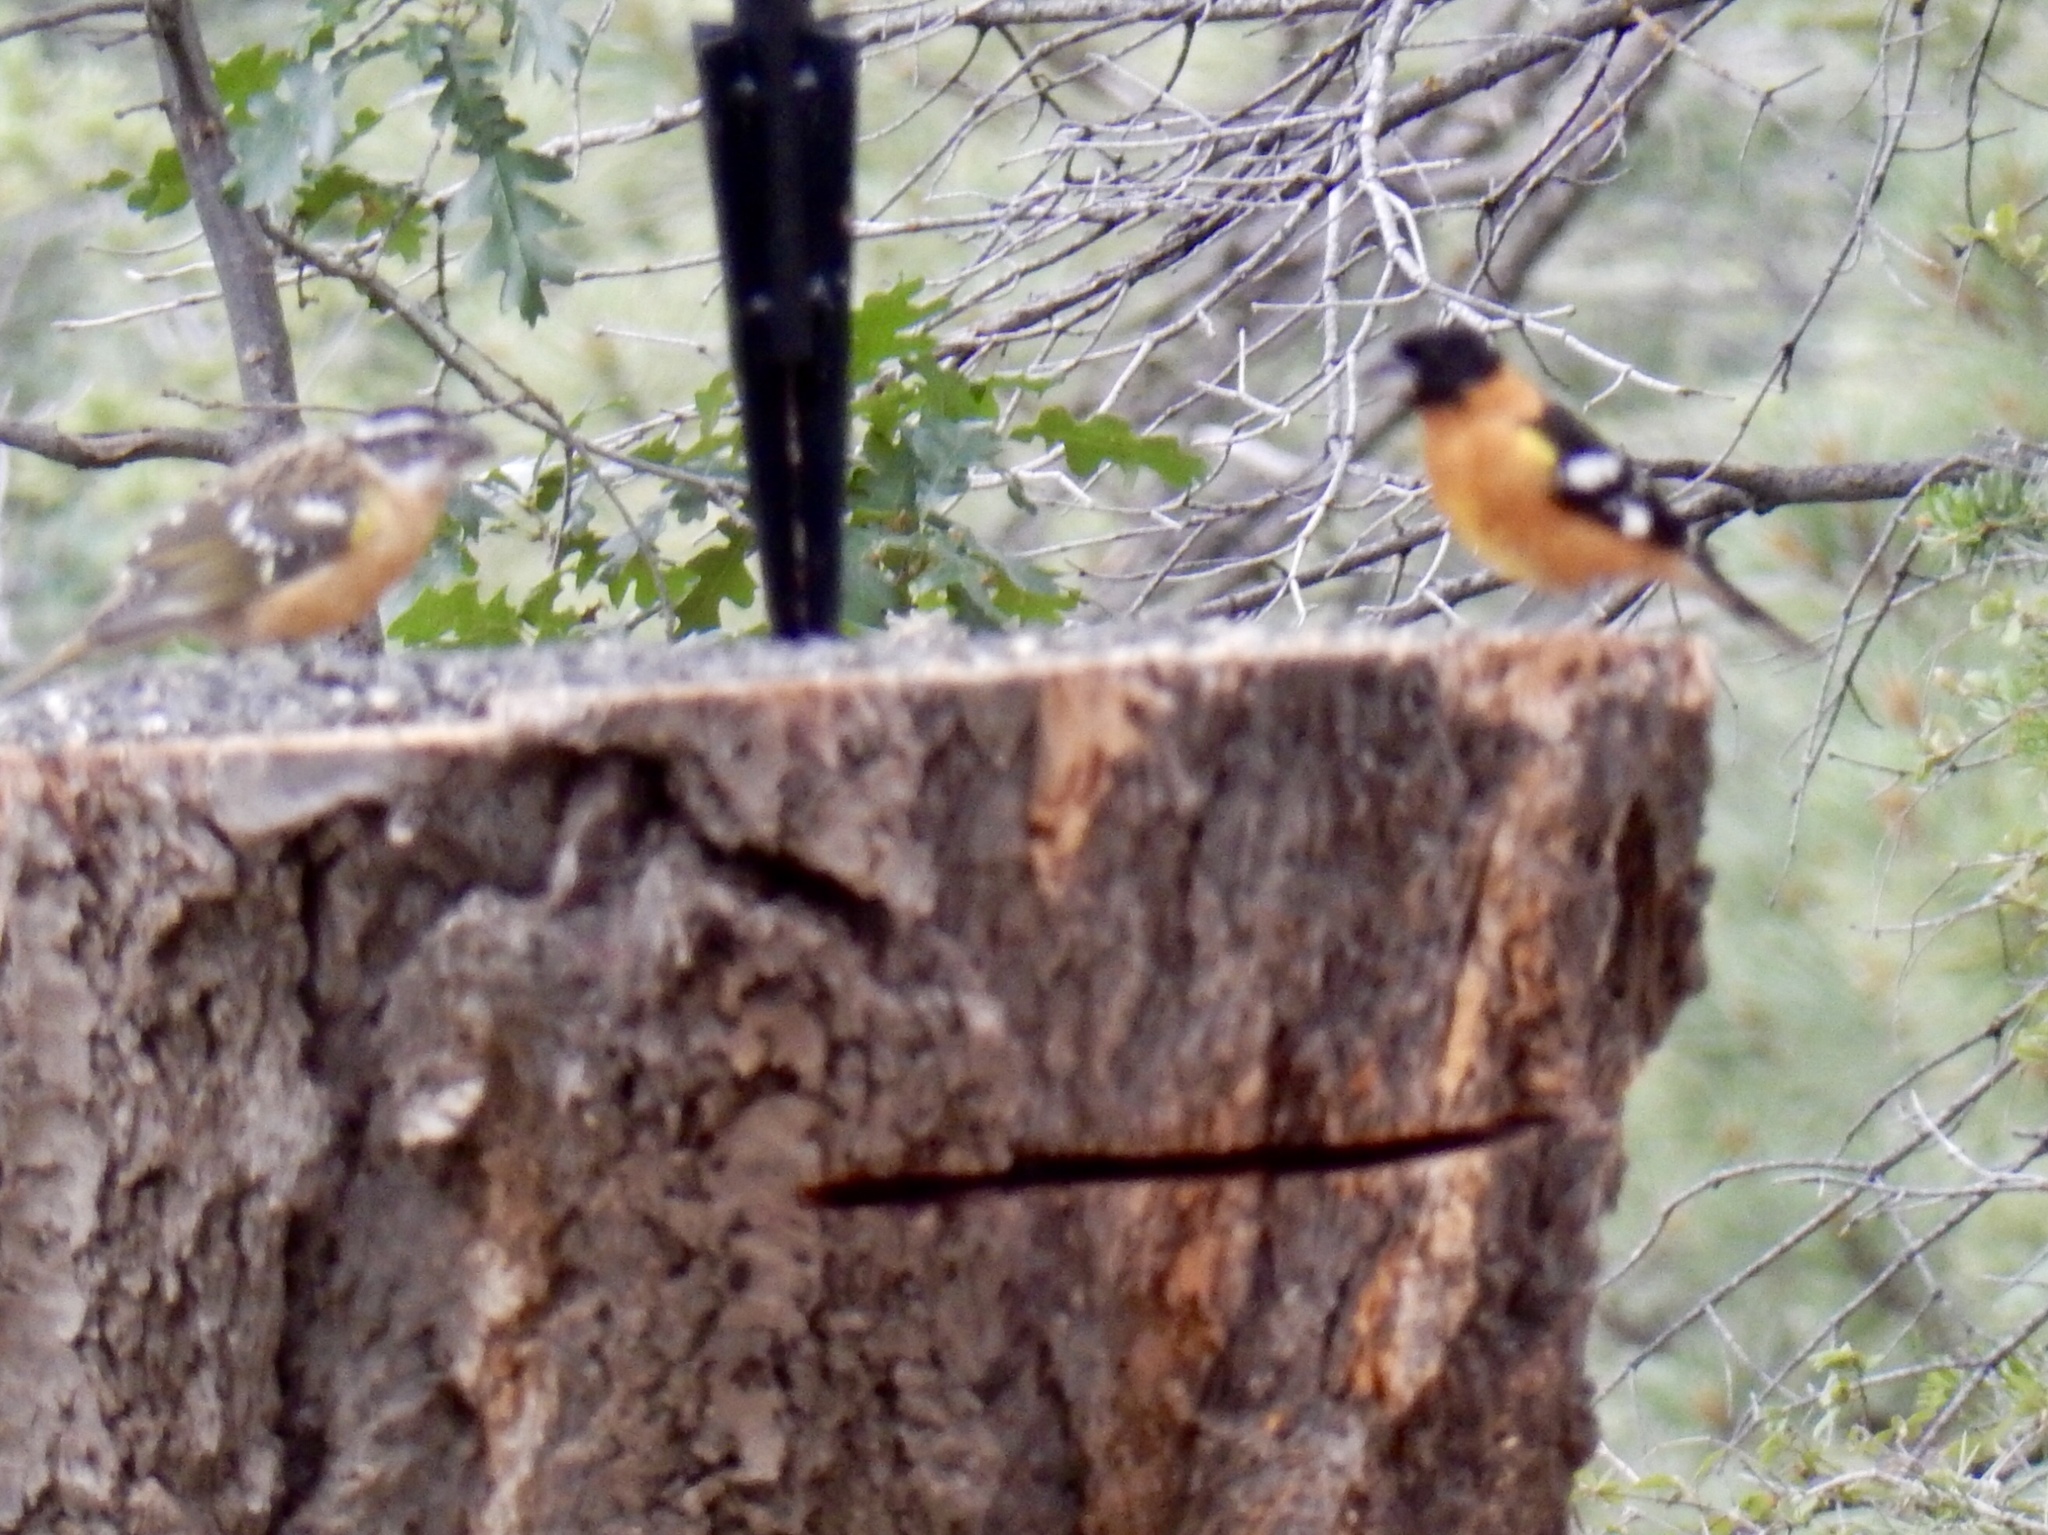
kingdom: Animalia
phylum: Chordata
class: Aves
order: Passeriformes
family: Cardinalidae
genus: Pheucticus
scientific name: Pheucticus melanocephalus
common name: Black-headed grosbeak
